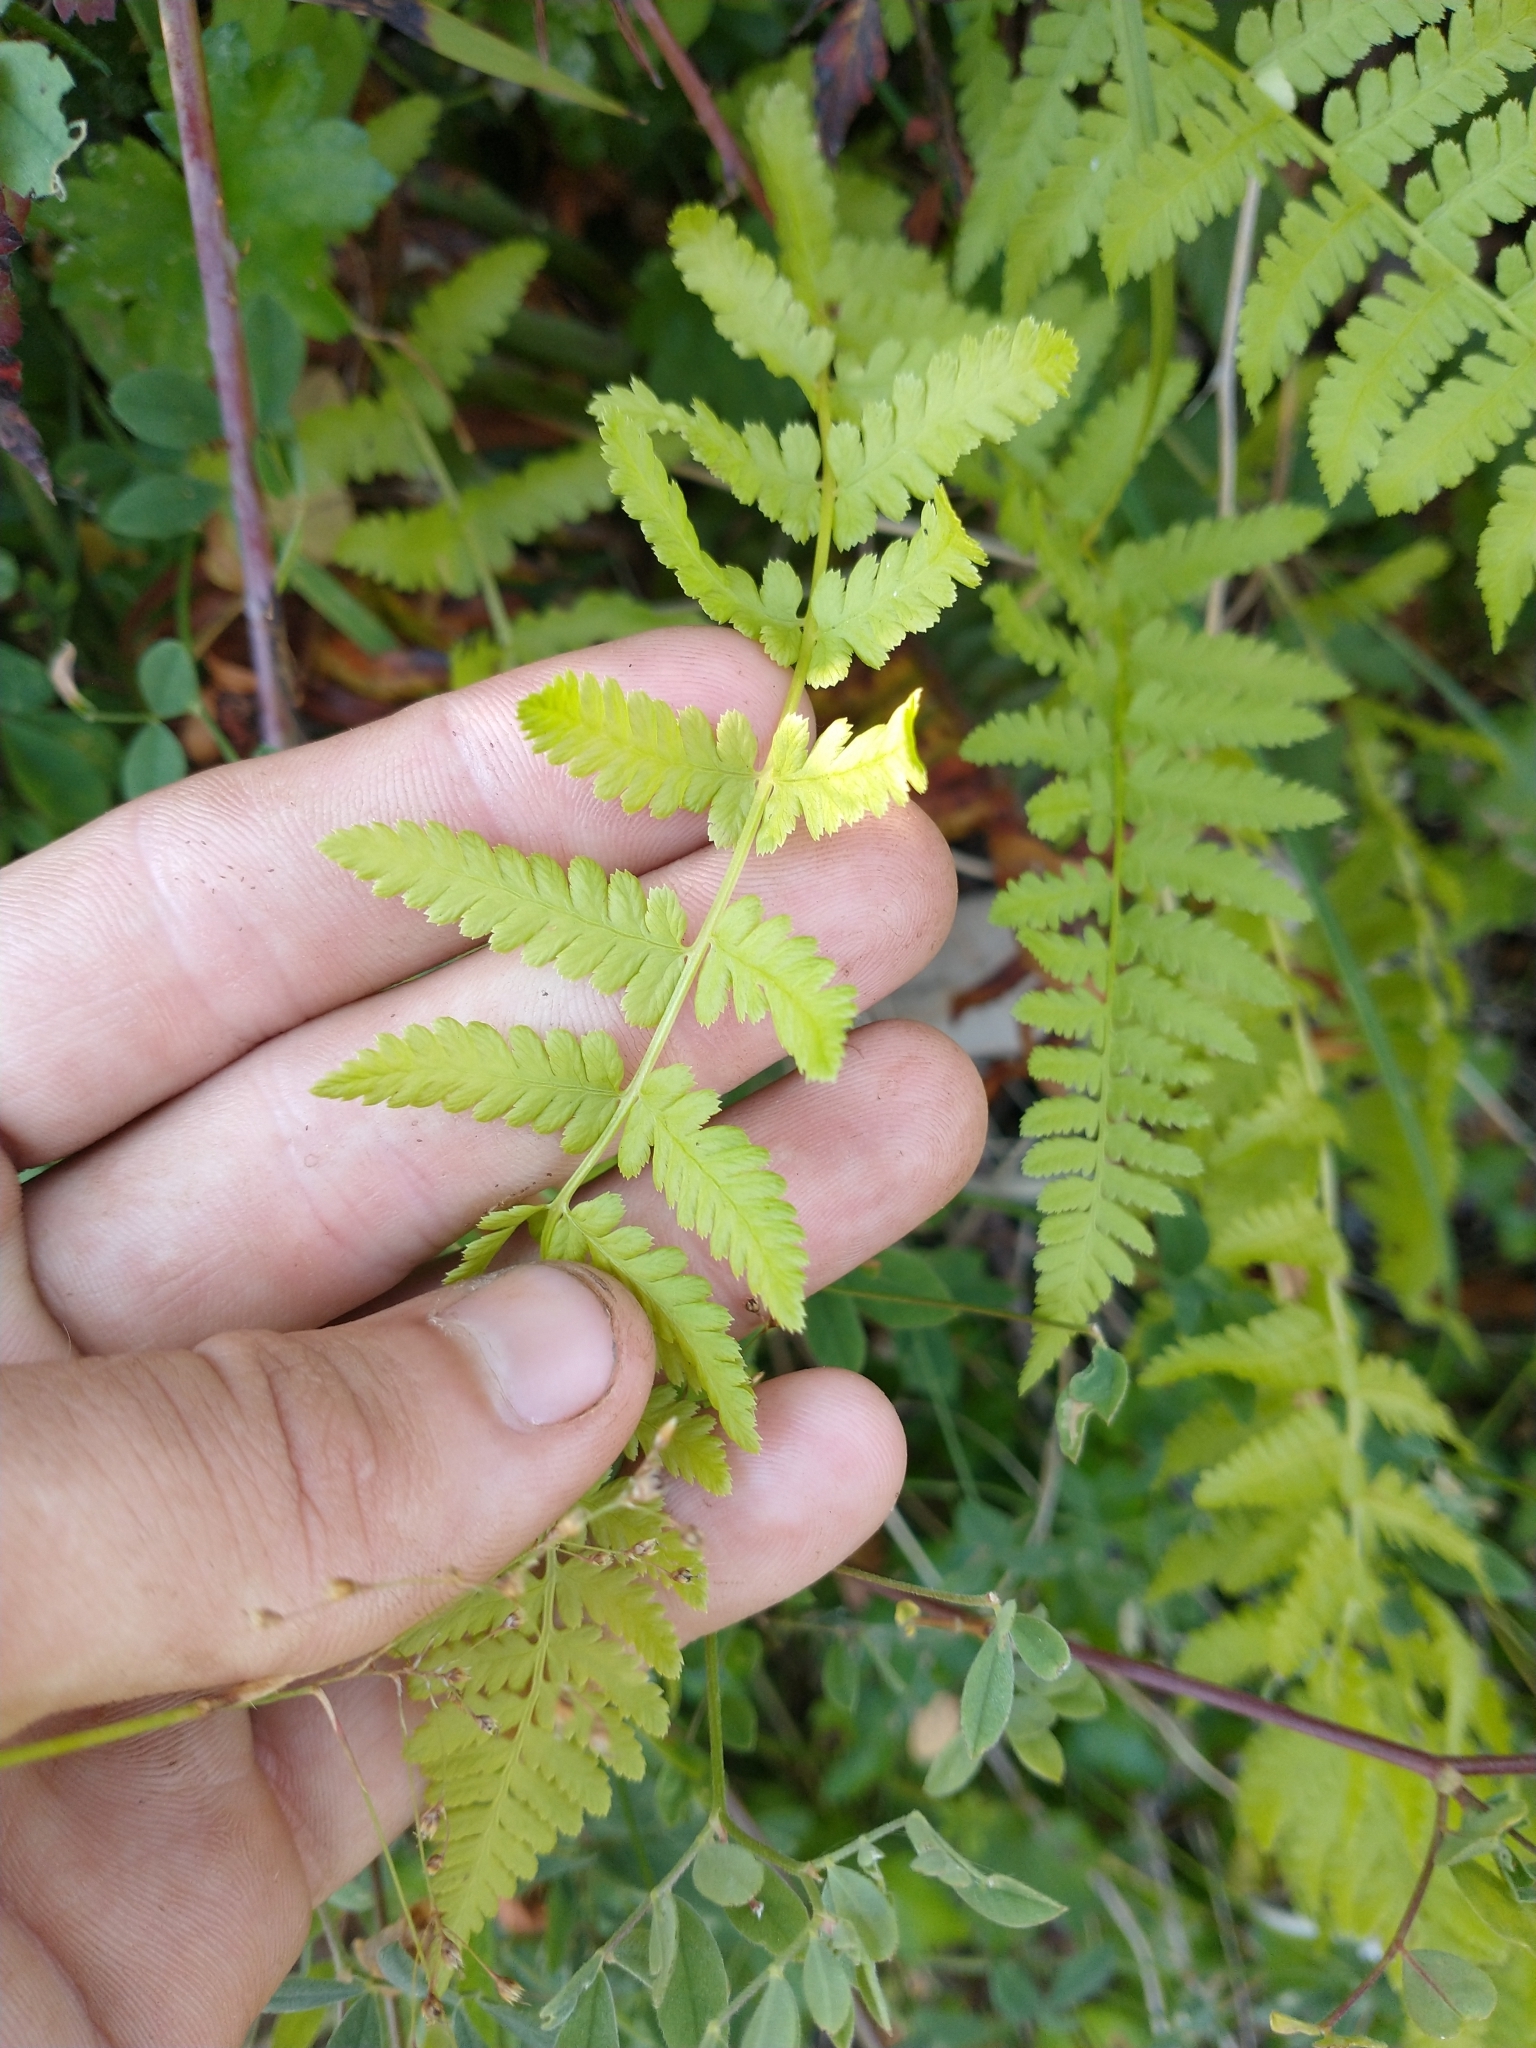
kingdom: Plantae
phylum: Tracheophyta
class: Polypodiopsida
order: Polypodiales
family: Athyriaceae
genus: Athyrium
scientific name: Athyrium filix-femina
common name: Lady fern
